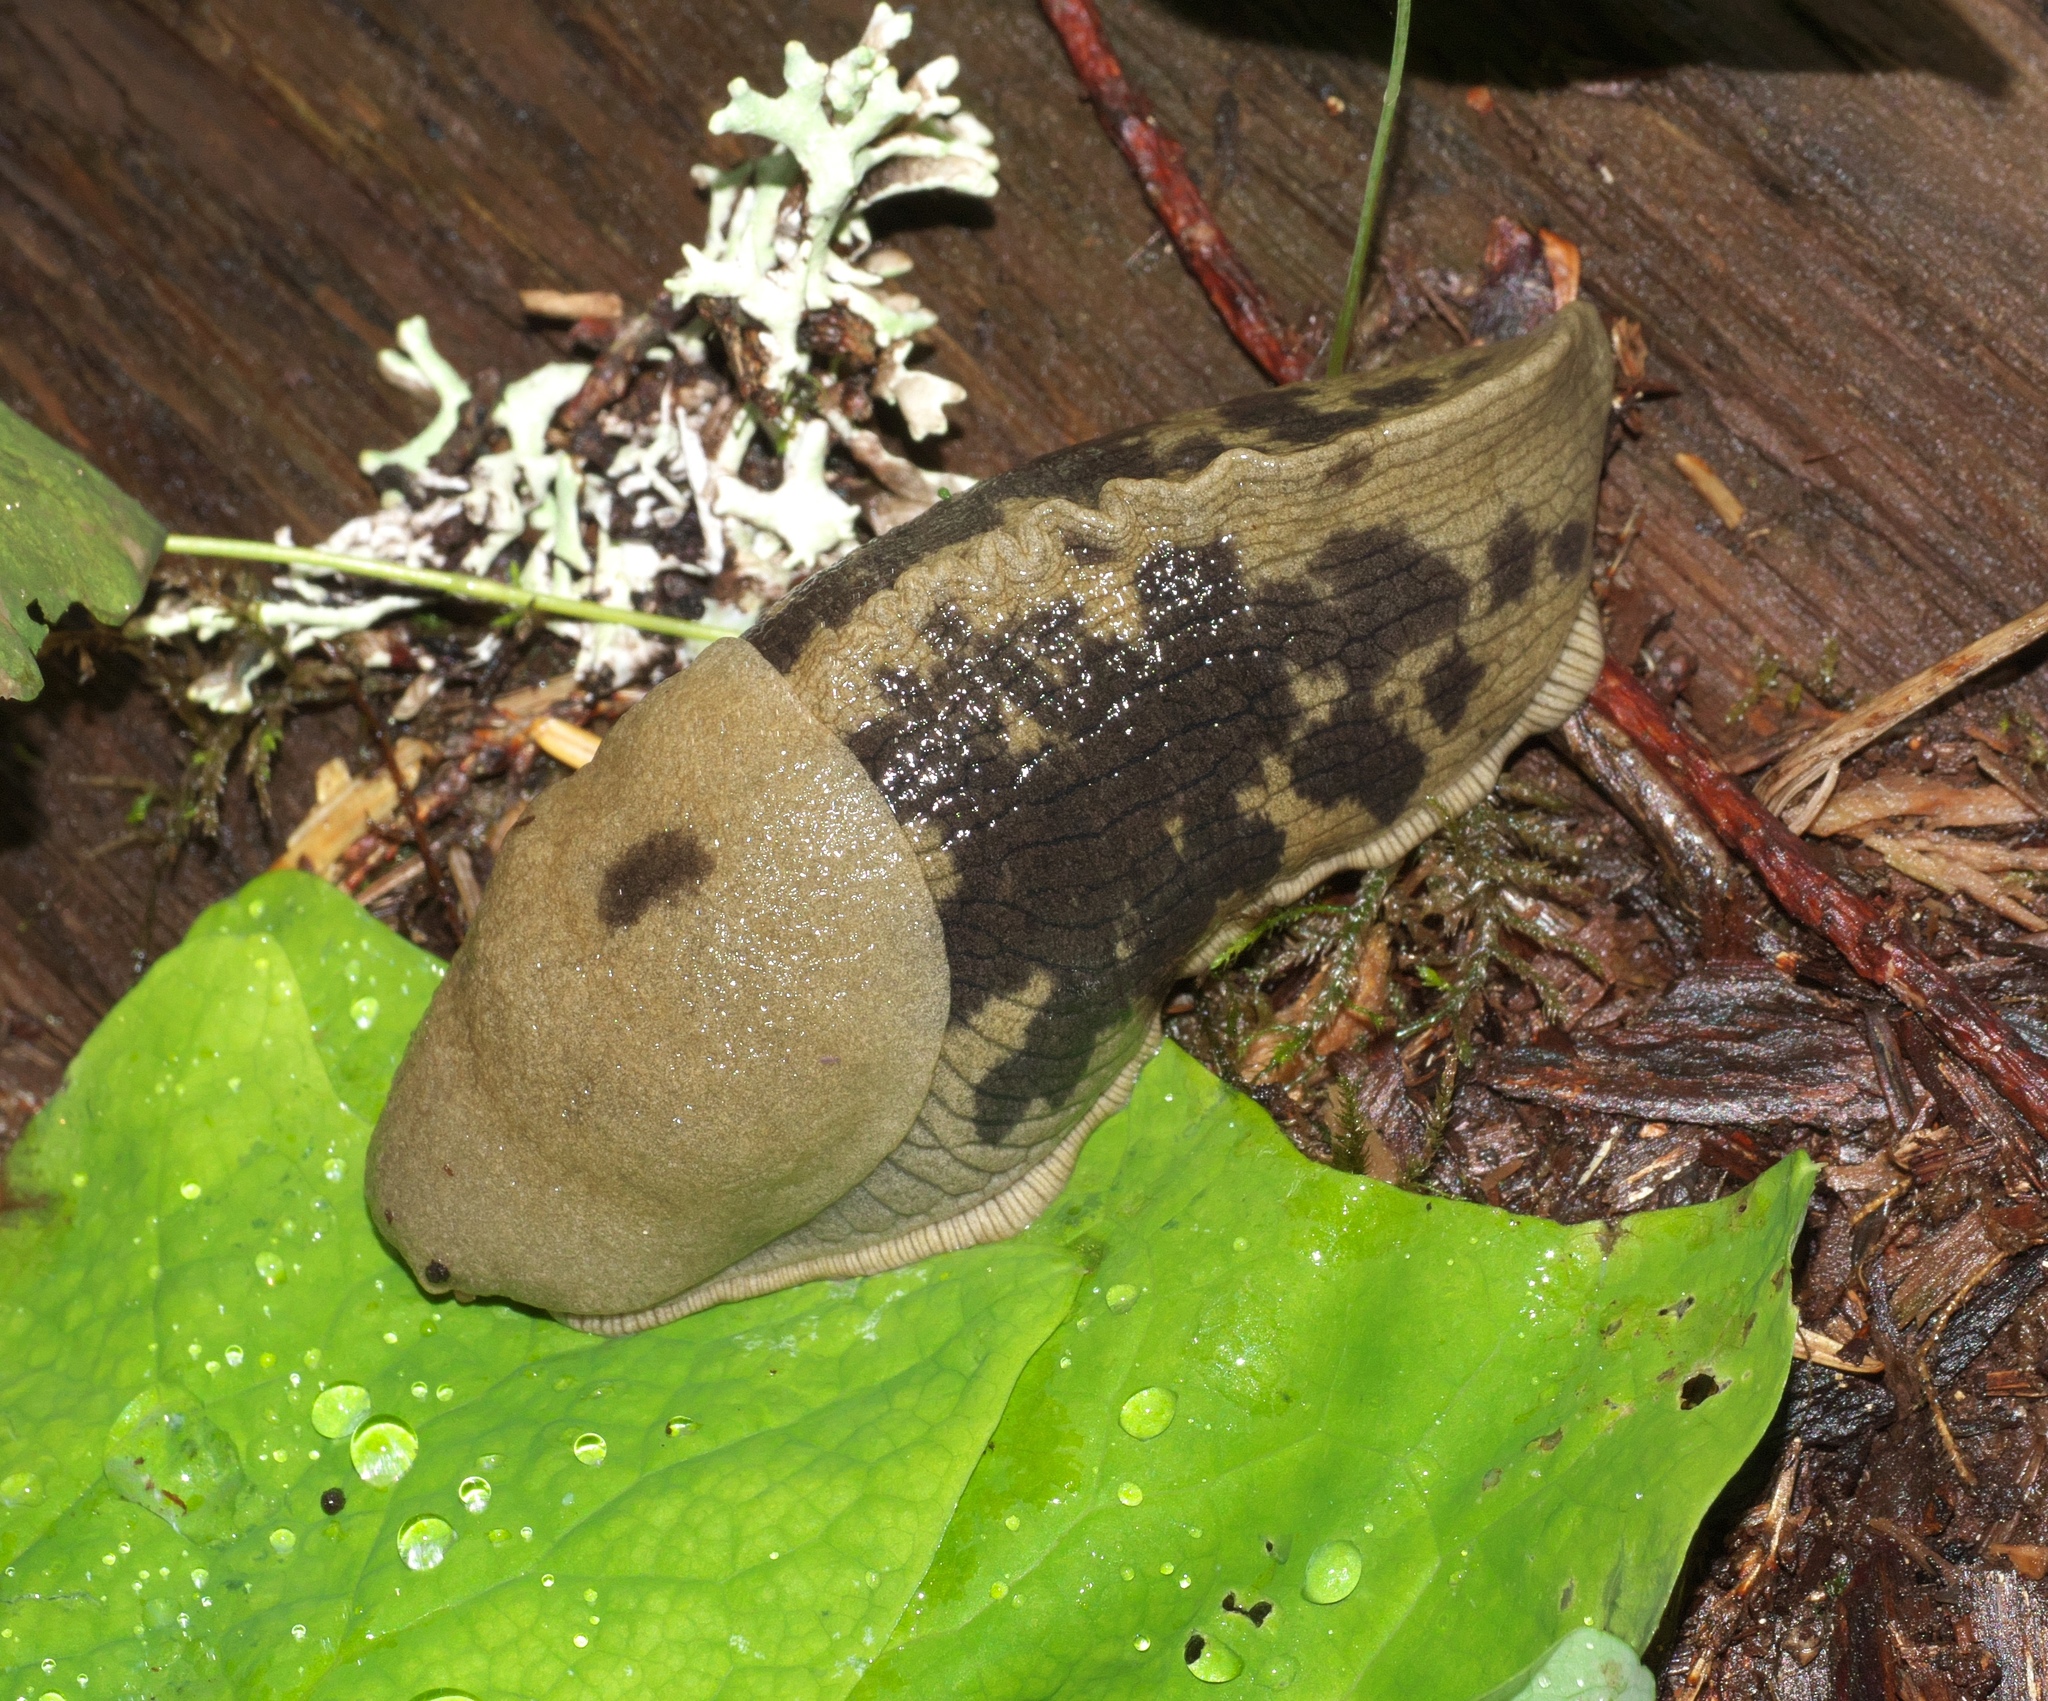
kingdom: Animalia
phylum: Mollusca
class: Gastropoda
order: Stylommatophora
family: Ariolimacidae
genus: Ariolimax
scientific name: Ariolimax columbianus
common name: Pacific banana slug
